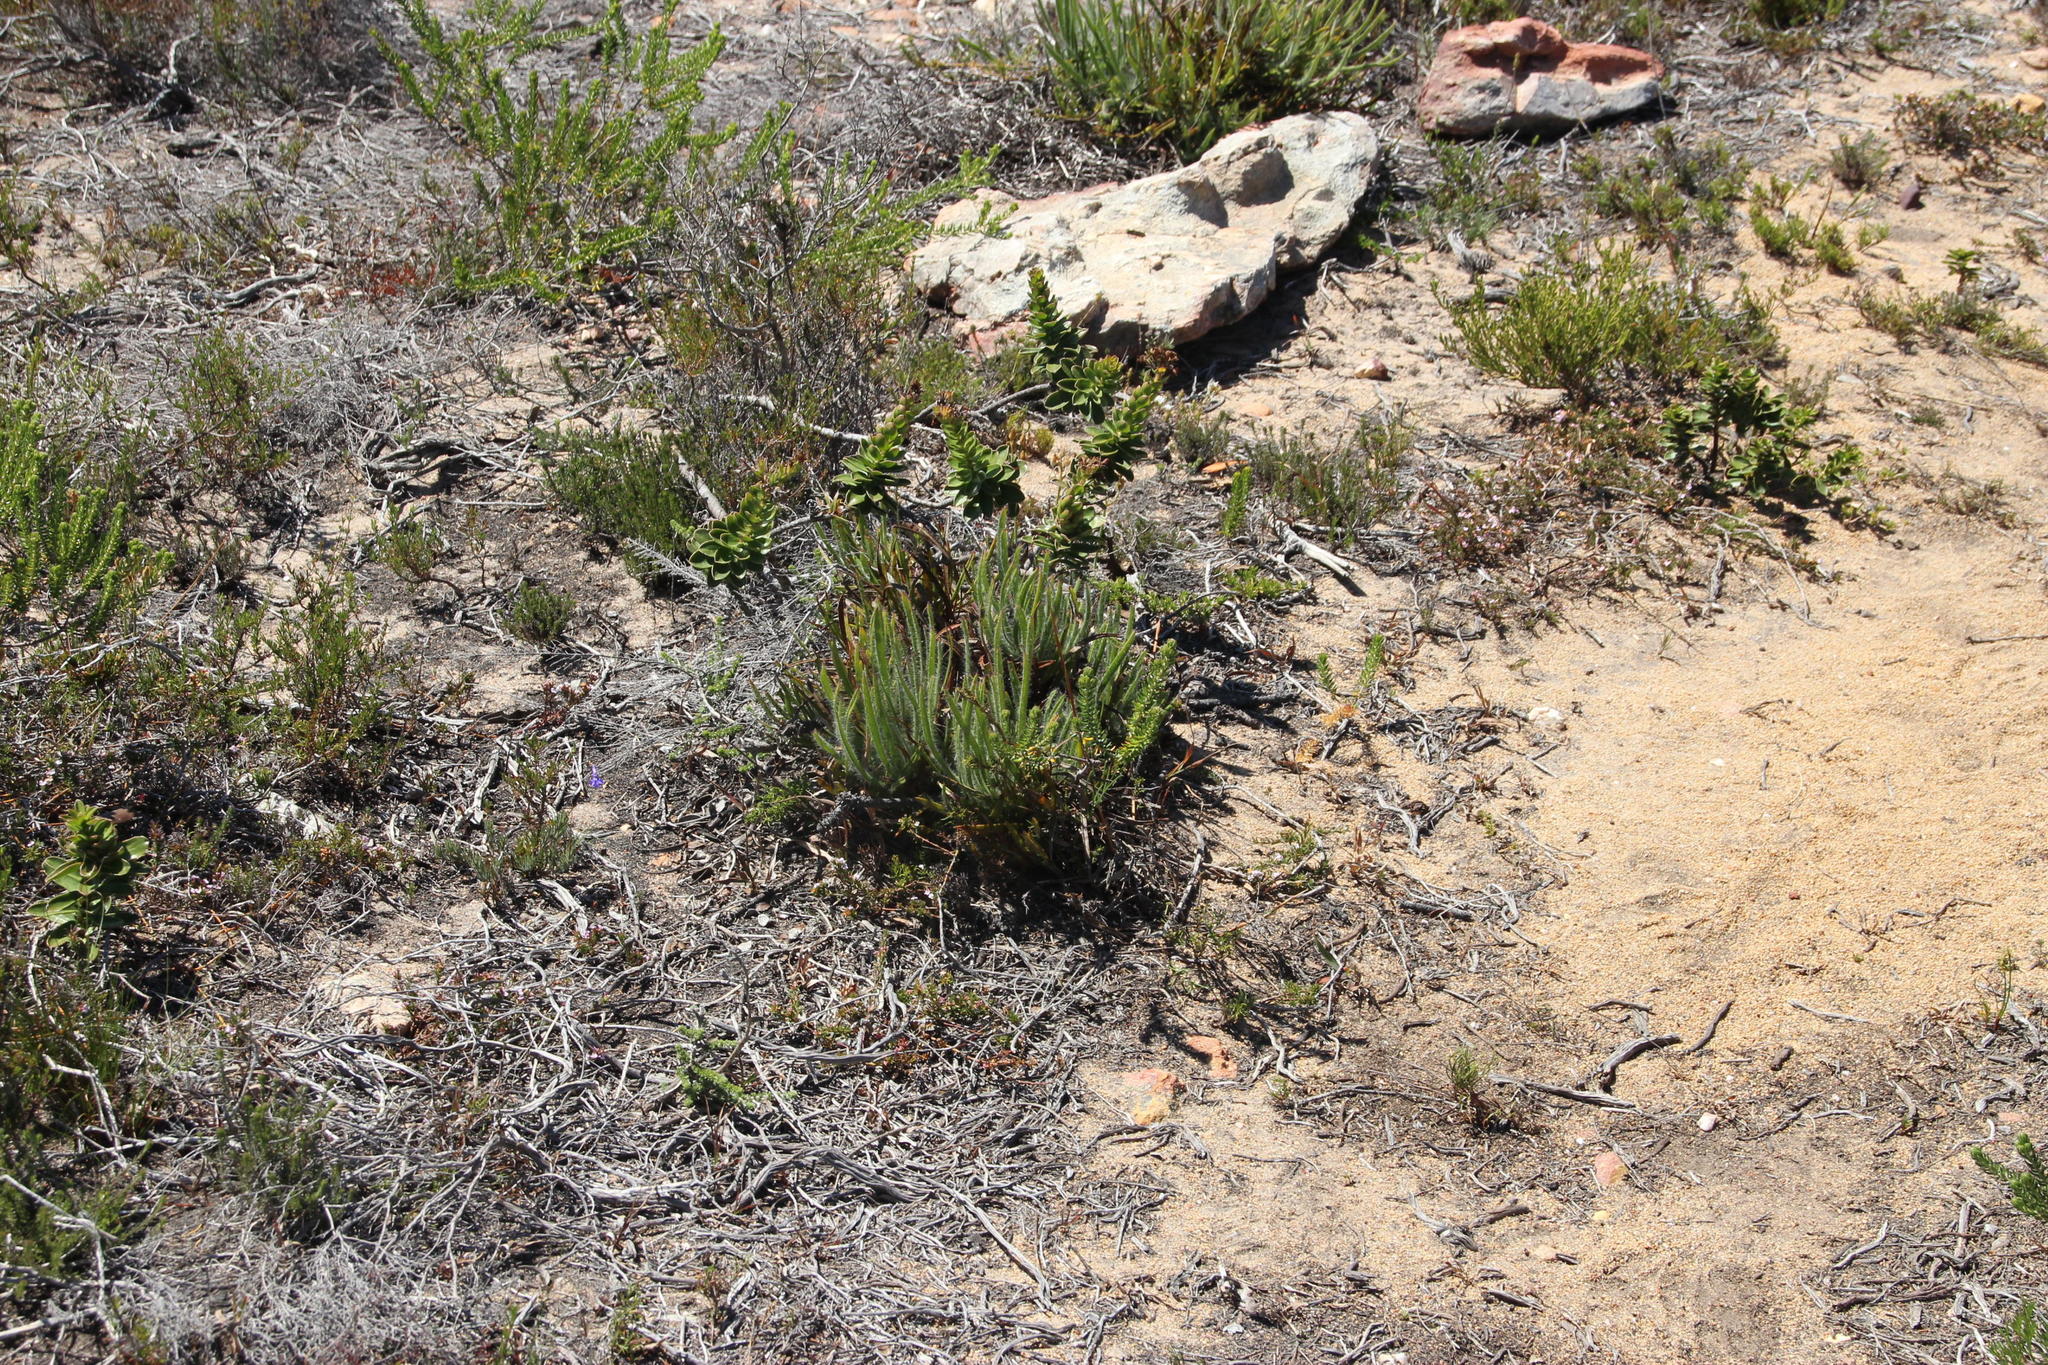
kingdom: Plantae
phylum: Tracheophyta
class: Magnoliopsida
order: Proteales
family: Proteaceae
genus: Protea
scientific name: Protea denticulata
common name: Tooth-leaf sugarbush
